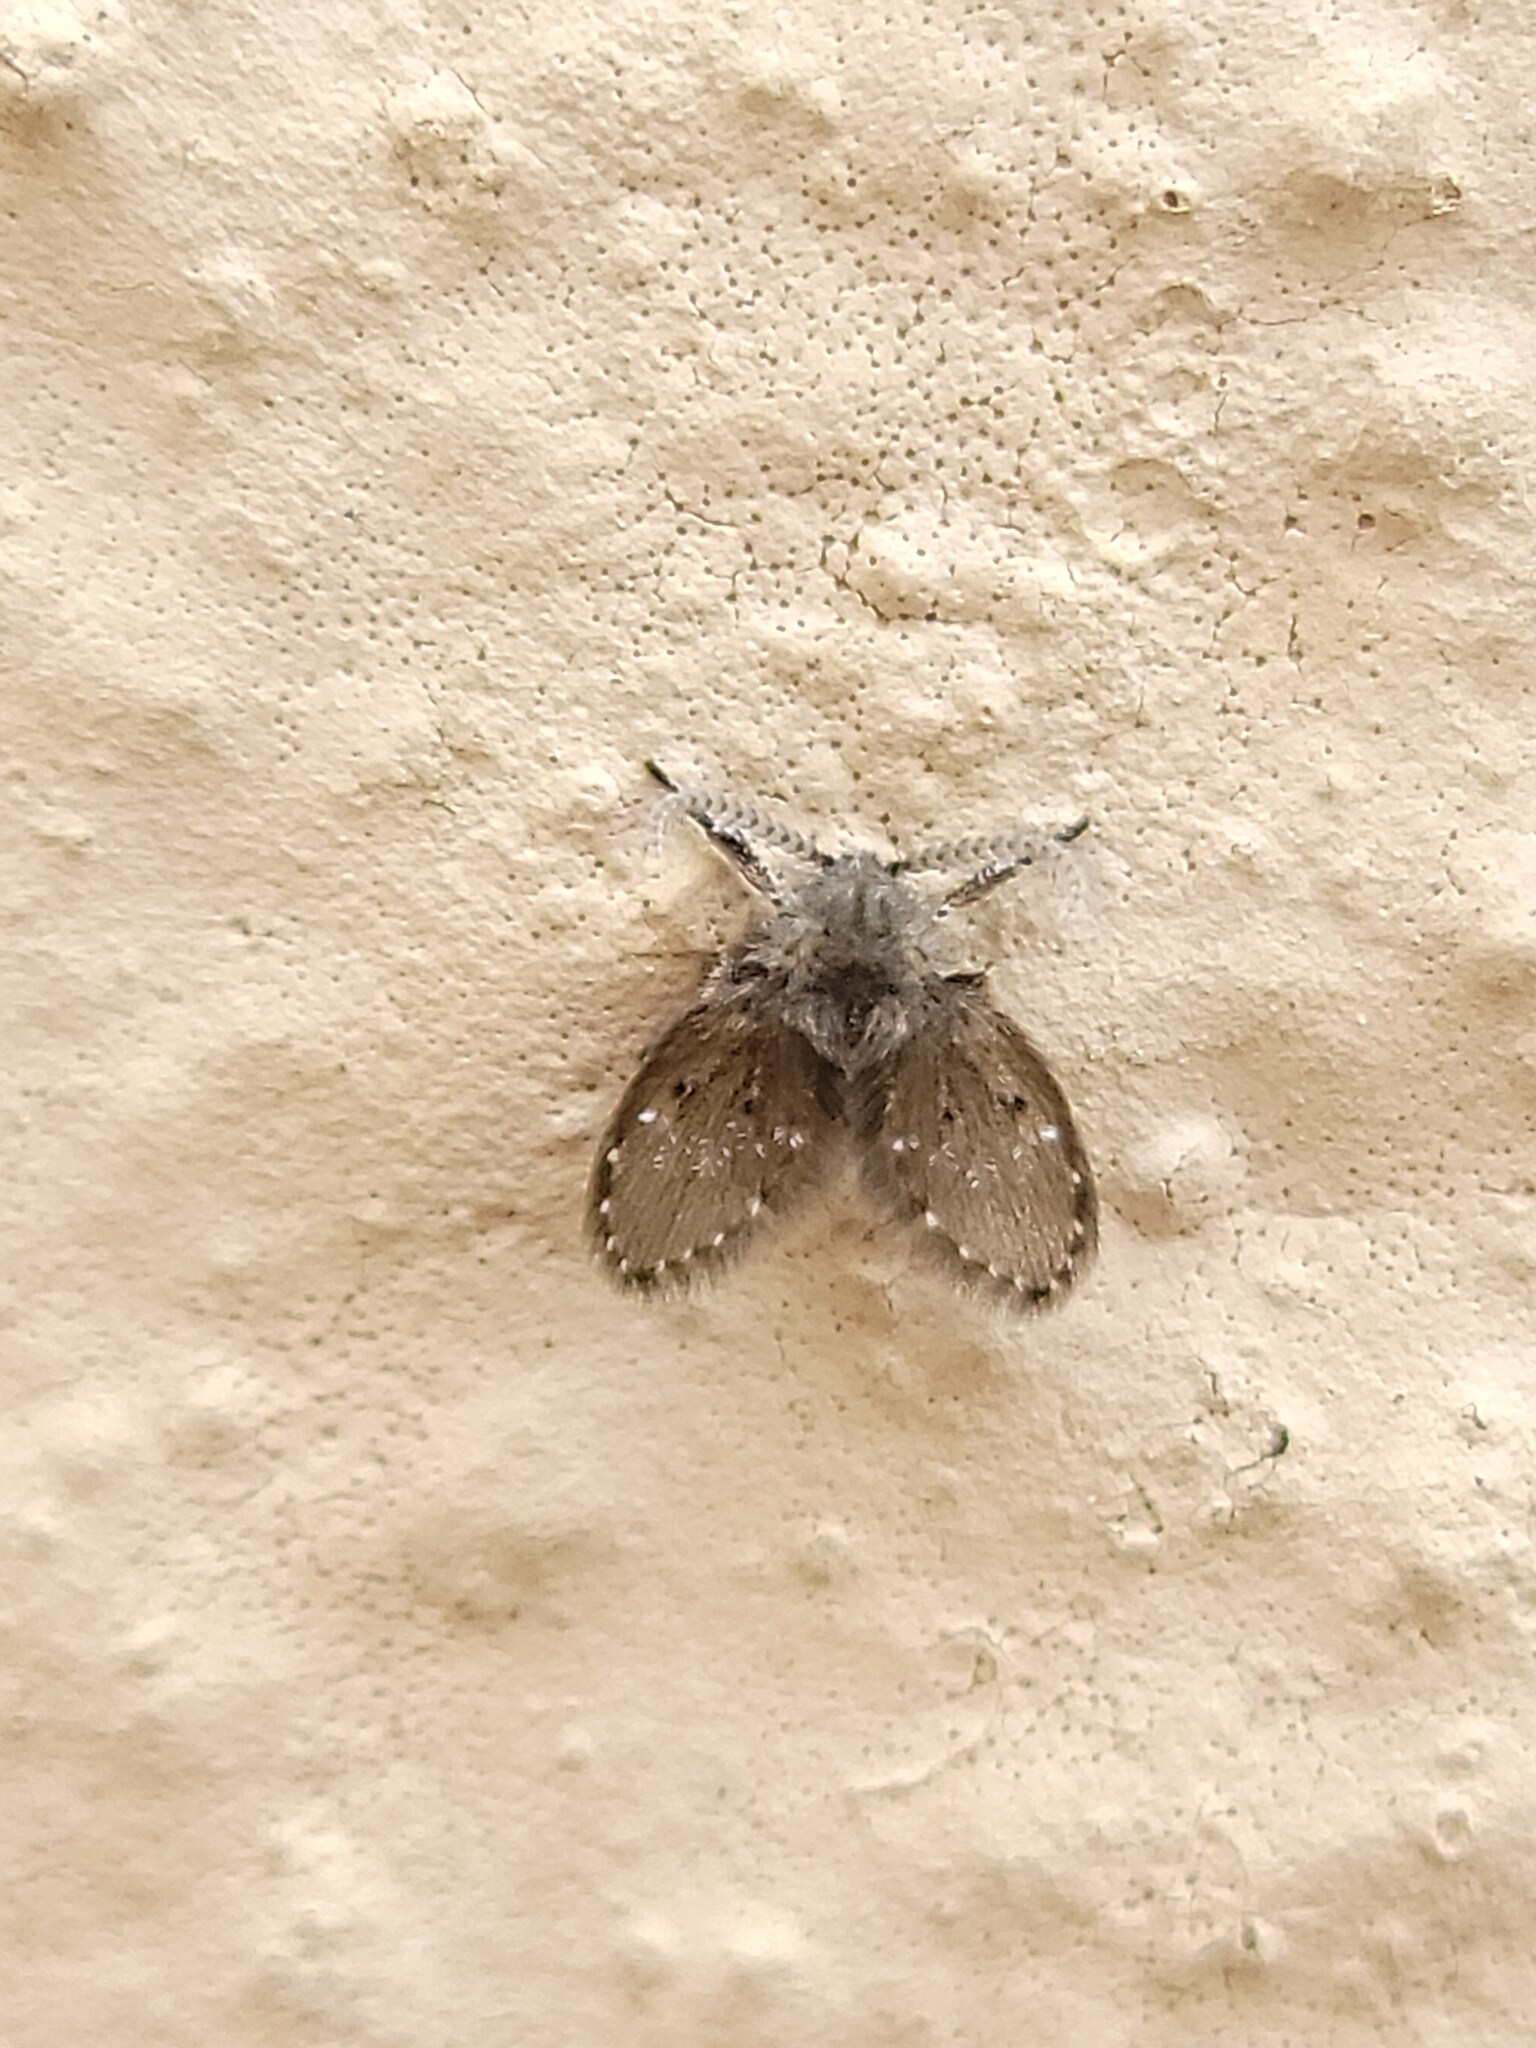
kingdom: Animalia
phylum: Arthropoda
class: Insecta
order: Diptera
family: Psychodidae
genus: Clogmia
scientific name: Clogmia albipunctatus
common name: White-spotted moth fly
